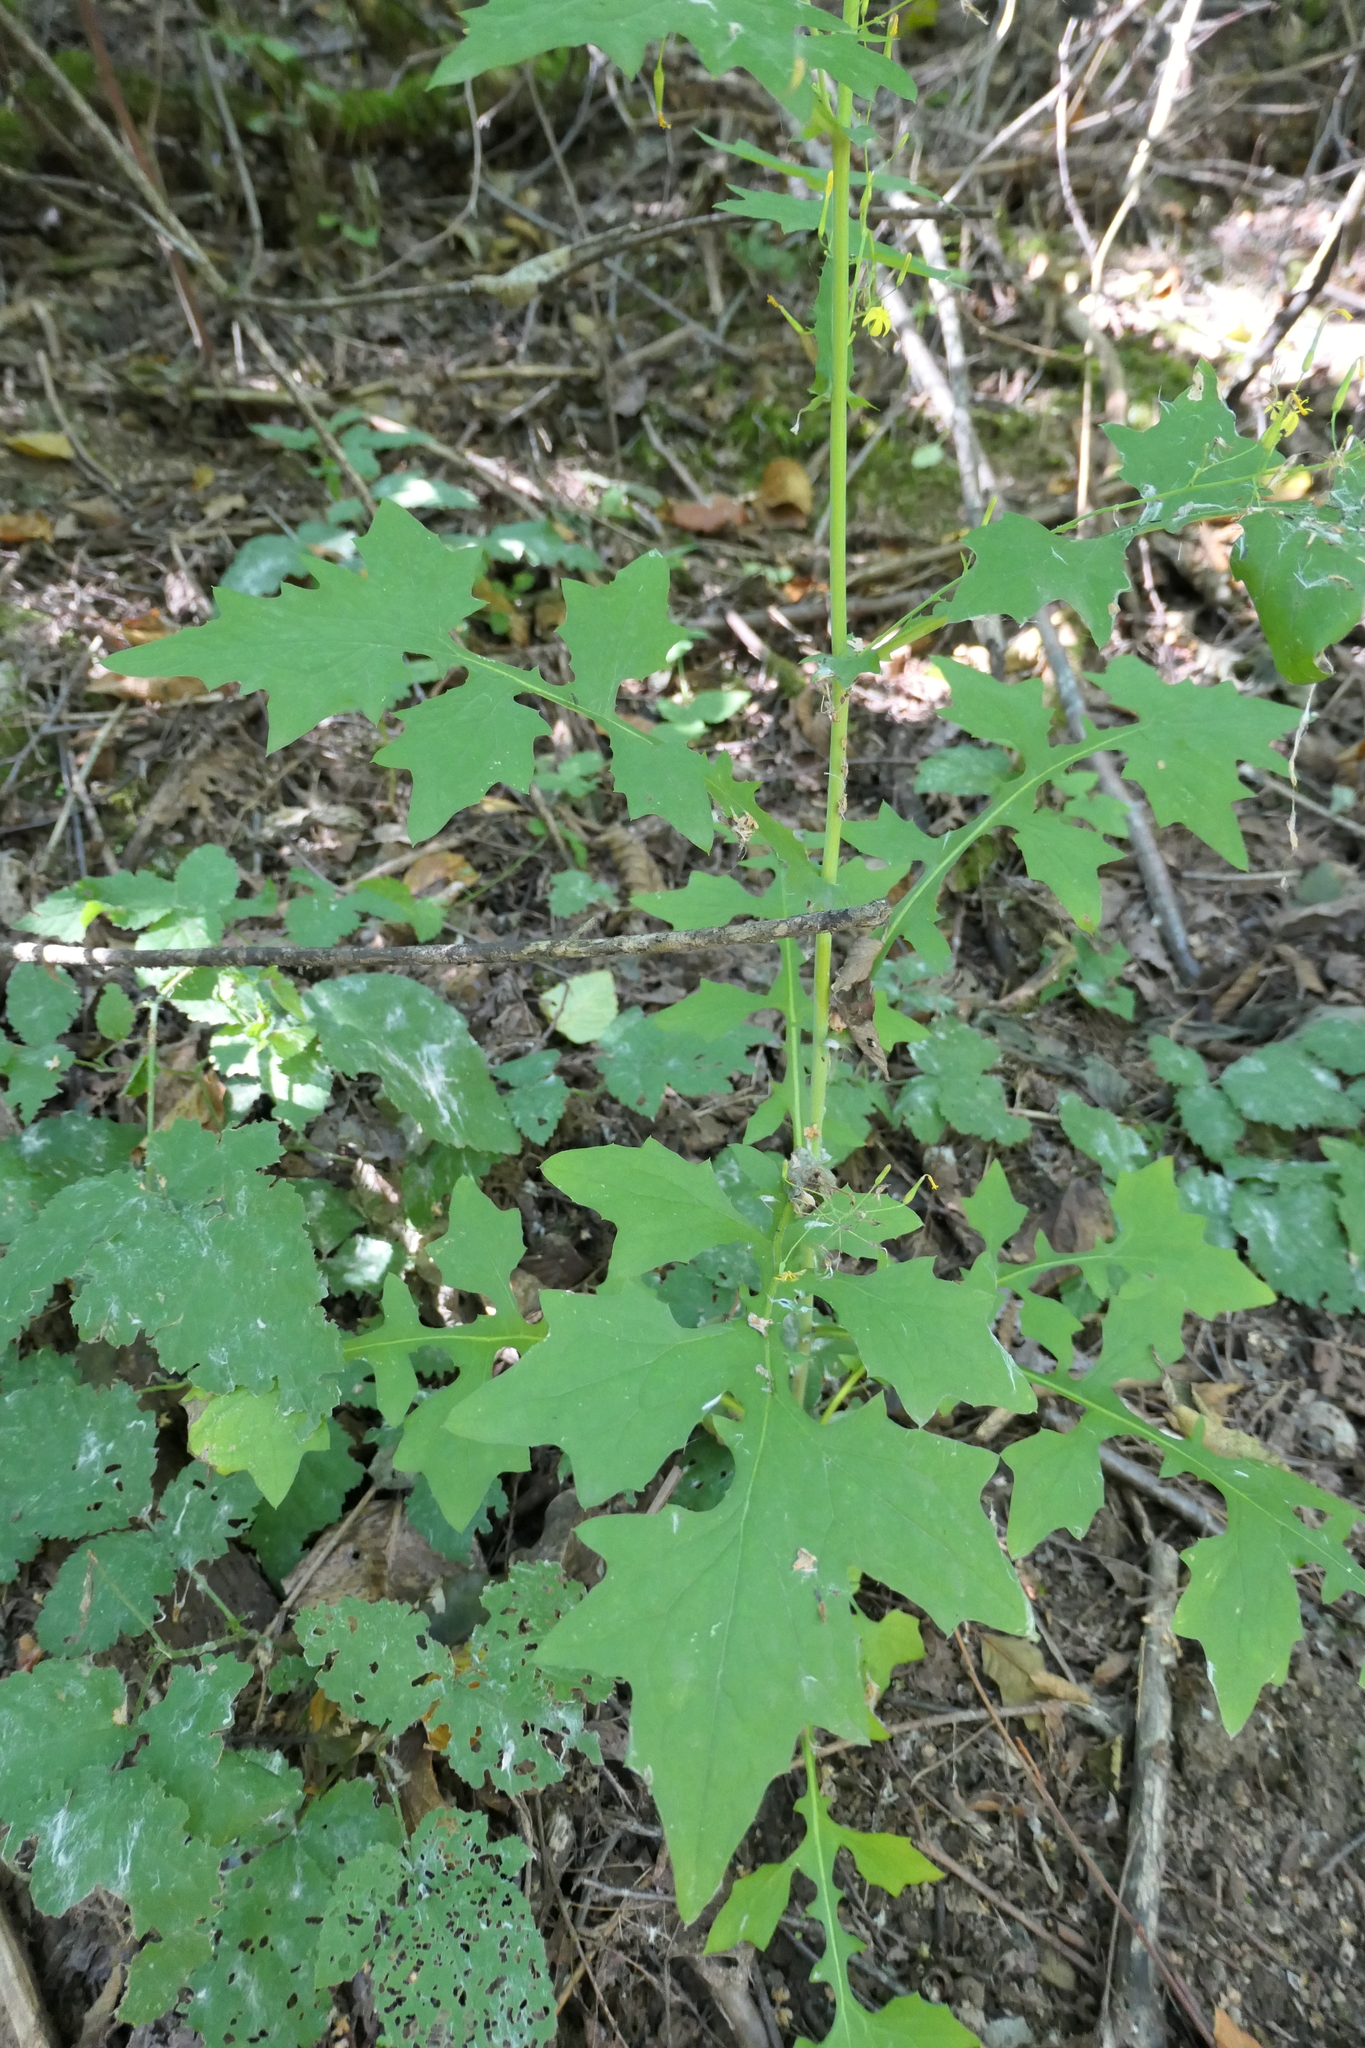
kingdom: Plantae
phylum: Tracheophyta
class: Magnoliopsida
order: Asterales
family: Asteraceae
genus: Mycelis
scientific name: Mycelis muralis
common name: Wall lettuce
